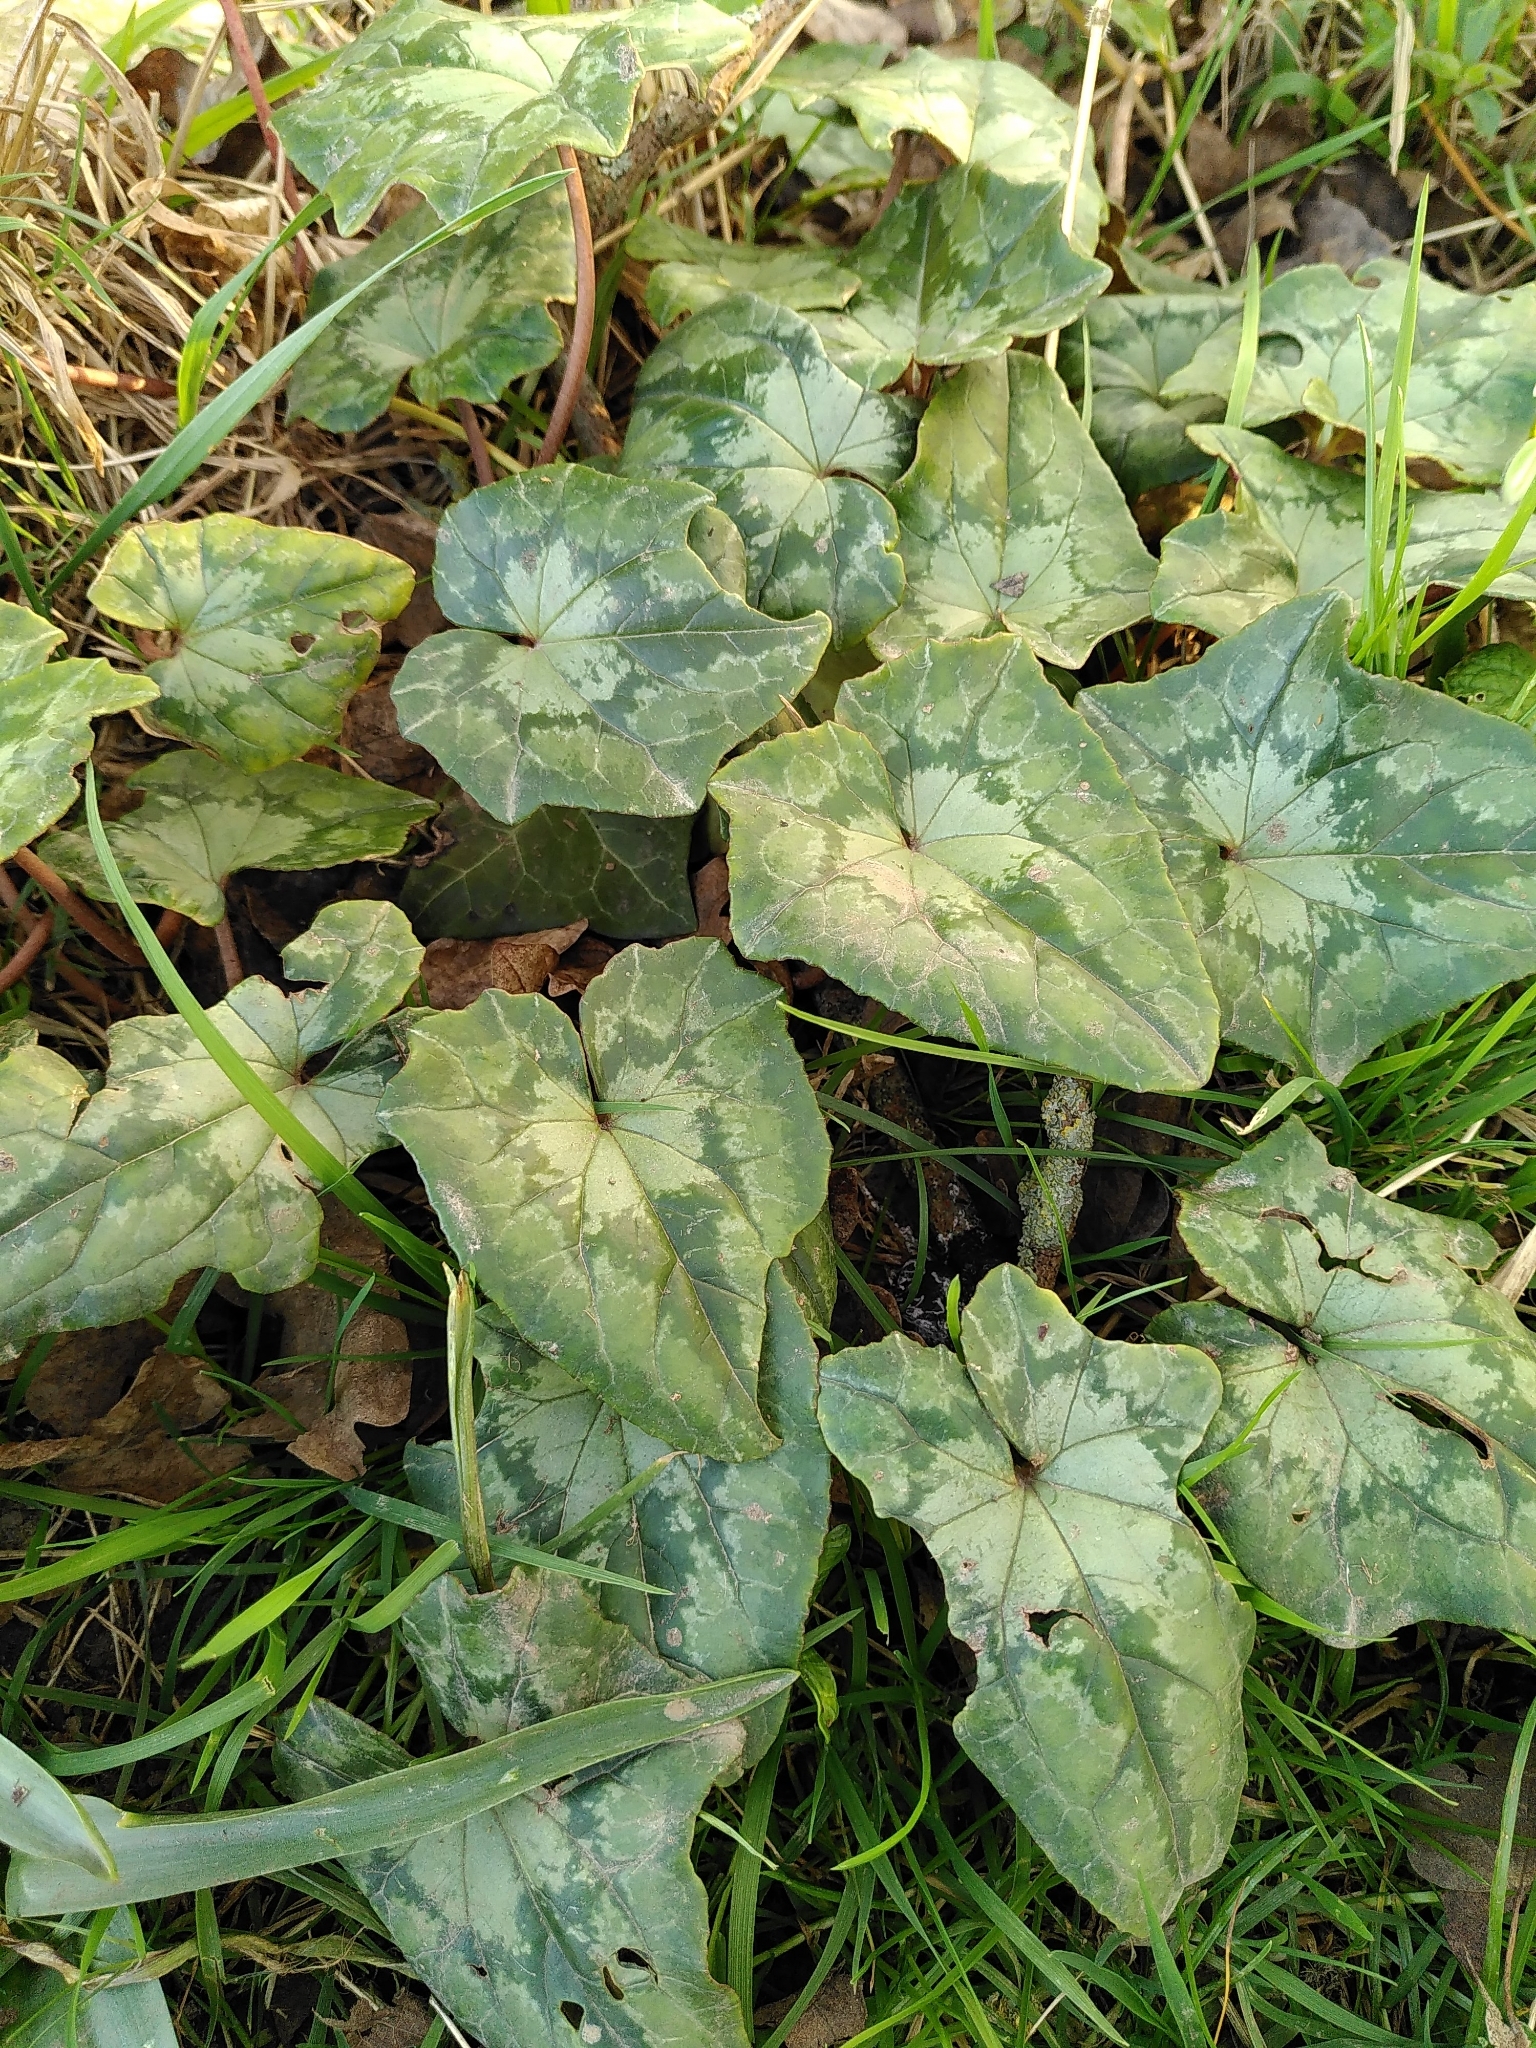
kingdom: Plantae
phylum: Tracheophyta
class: Magnoliopsida
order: Ericales
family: Primulaceae
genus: Cyclamen
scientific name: Cyclamen hederifolium
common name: Sowbread
